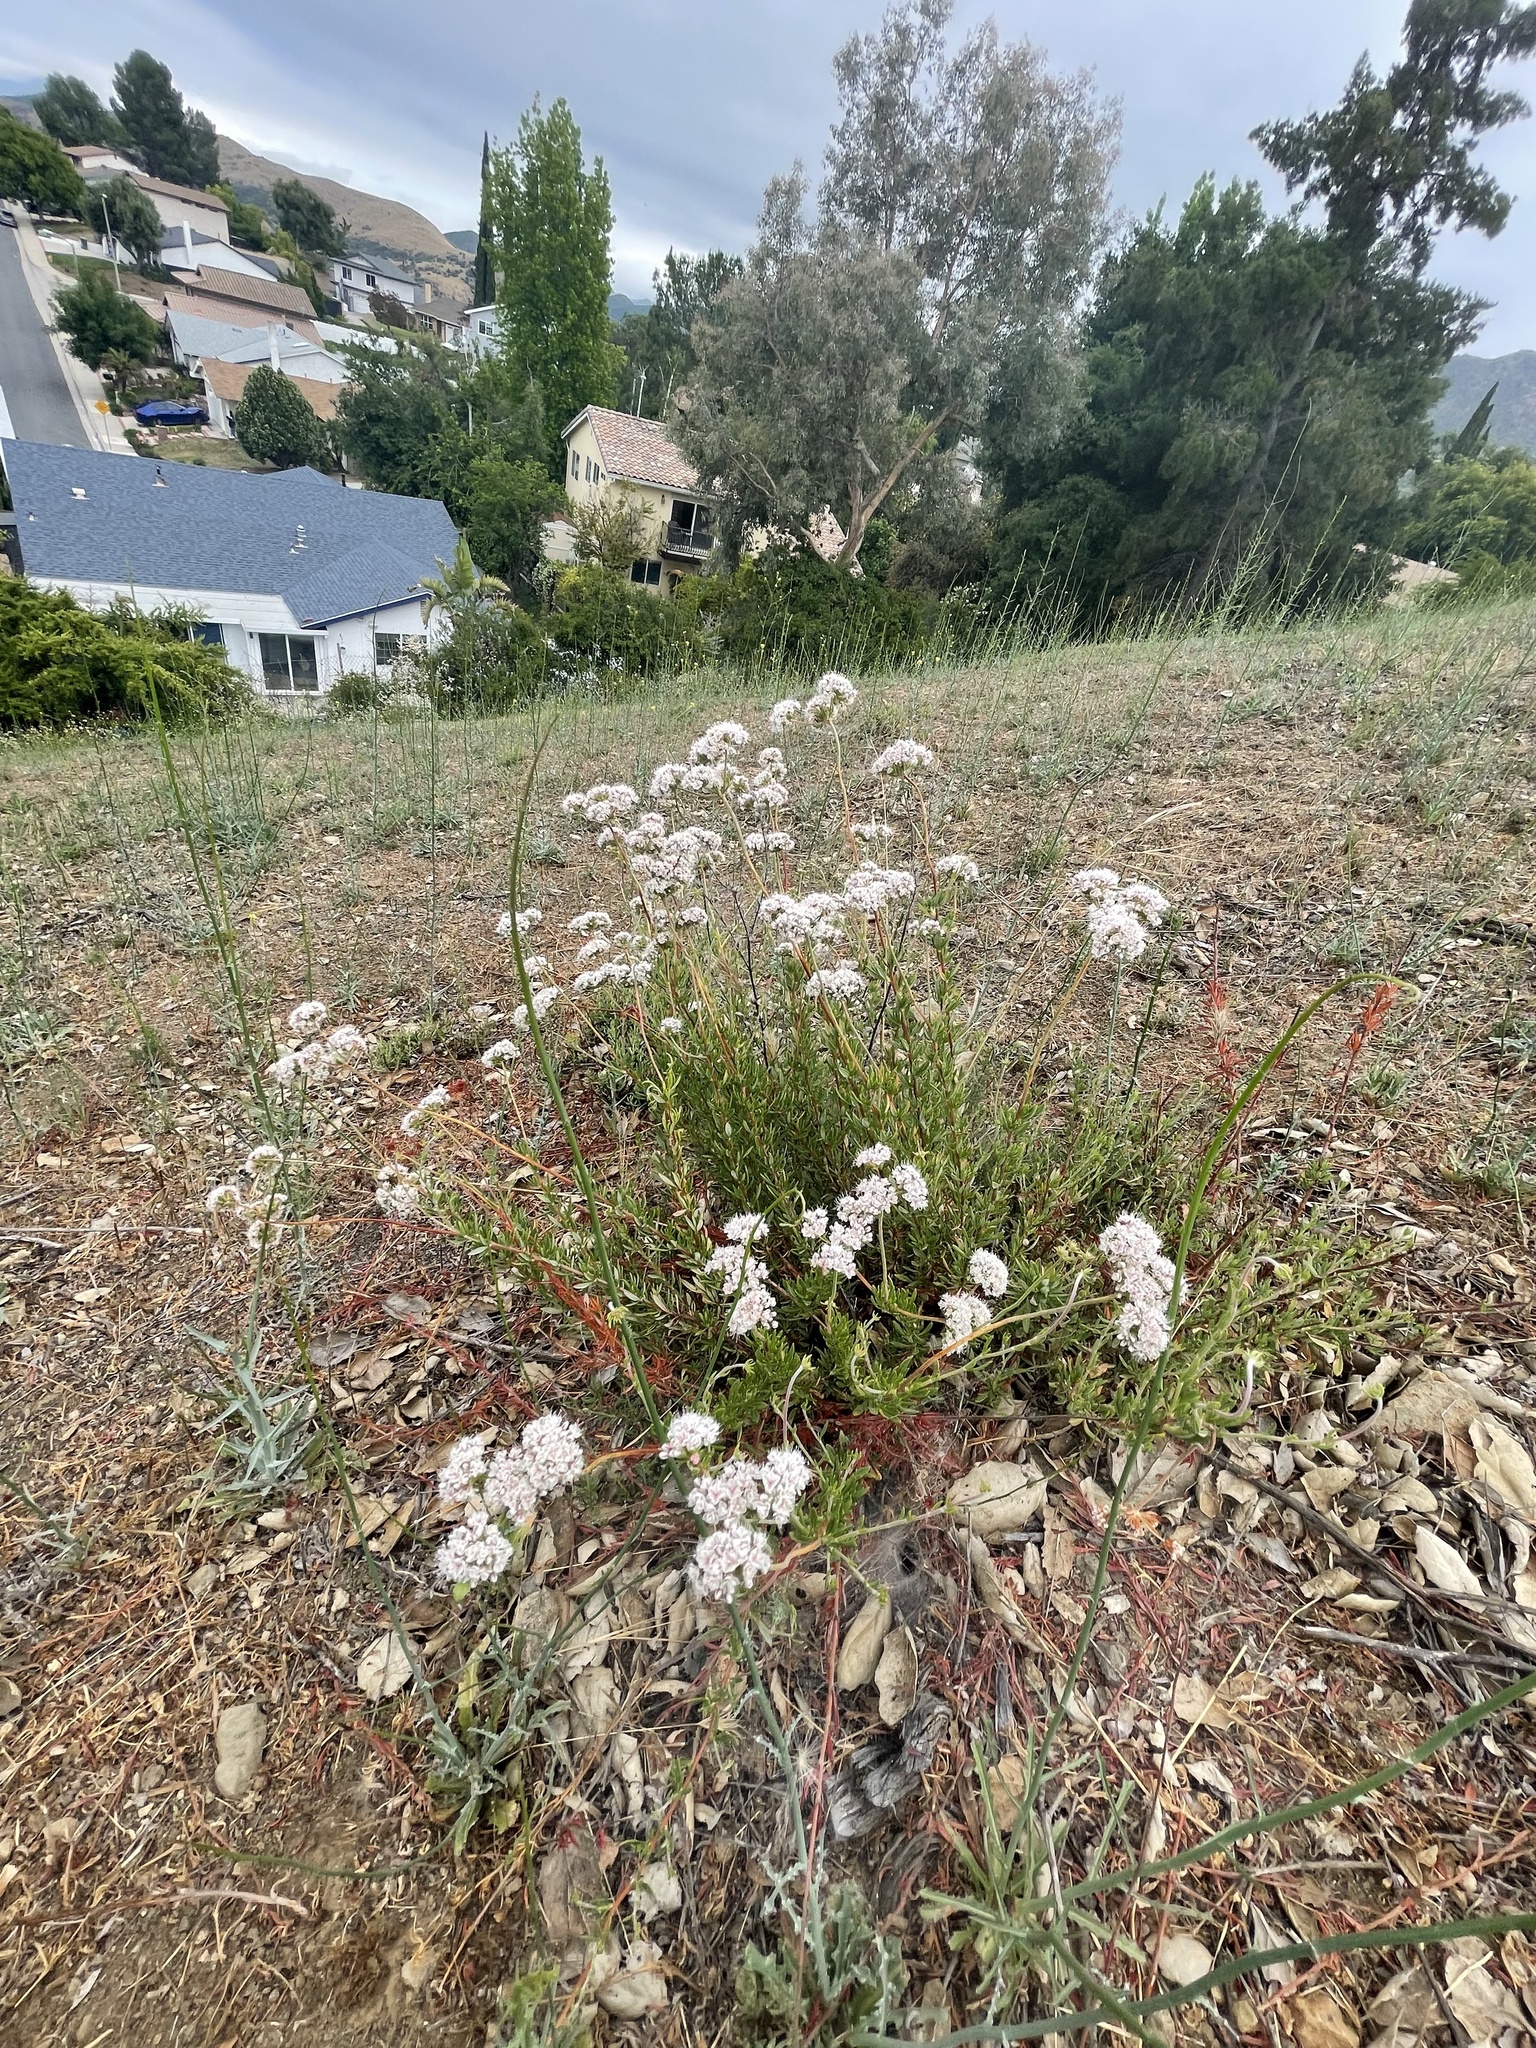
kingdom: Plantae
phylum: Tracheophyta
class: Magnoliopsida
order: Caryophyllales
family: Polygonaceae
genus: Eriogonum
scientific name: Eriogonum fasciculatum
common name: California wild buckwheat
